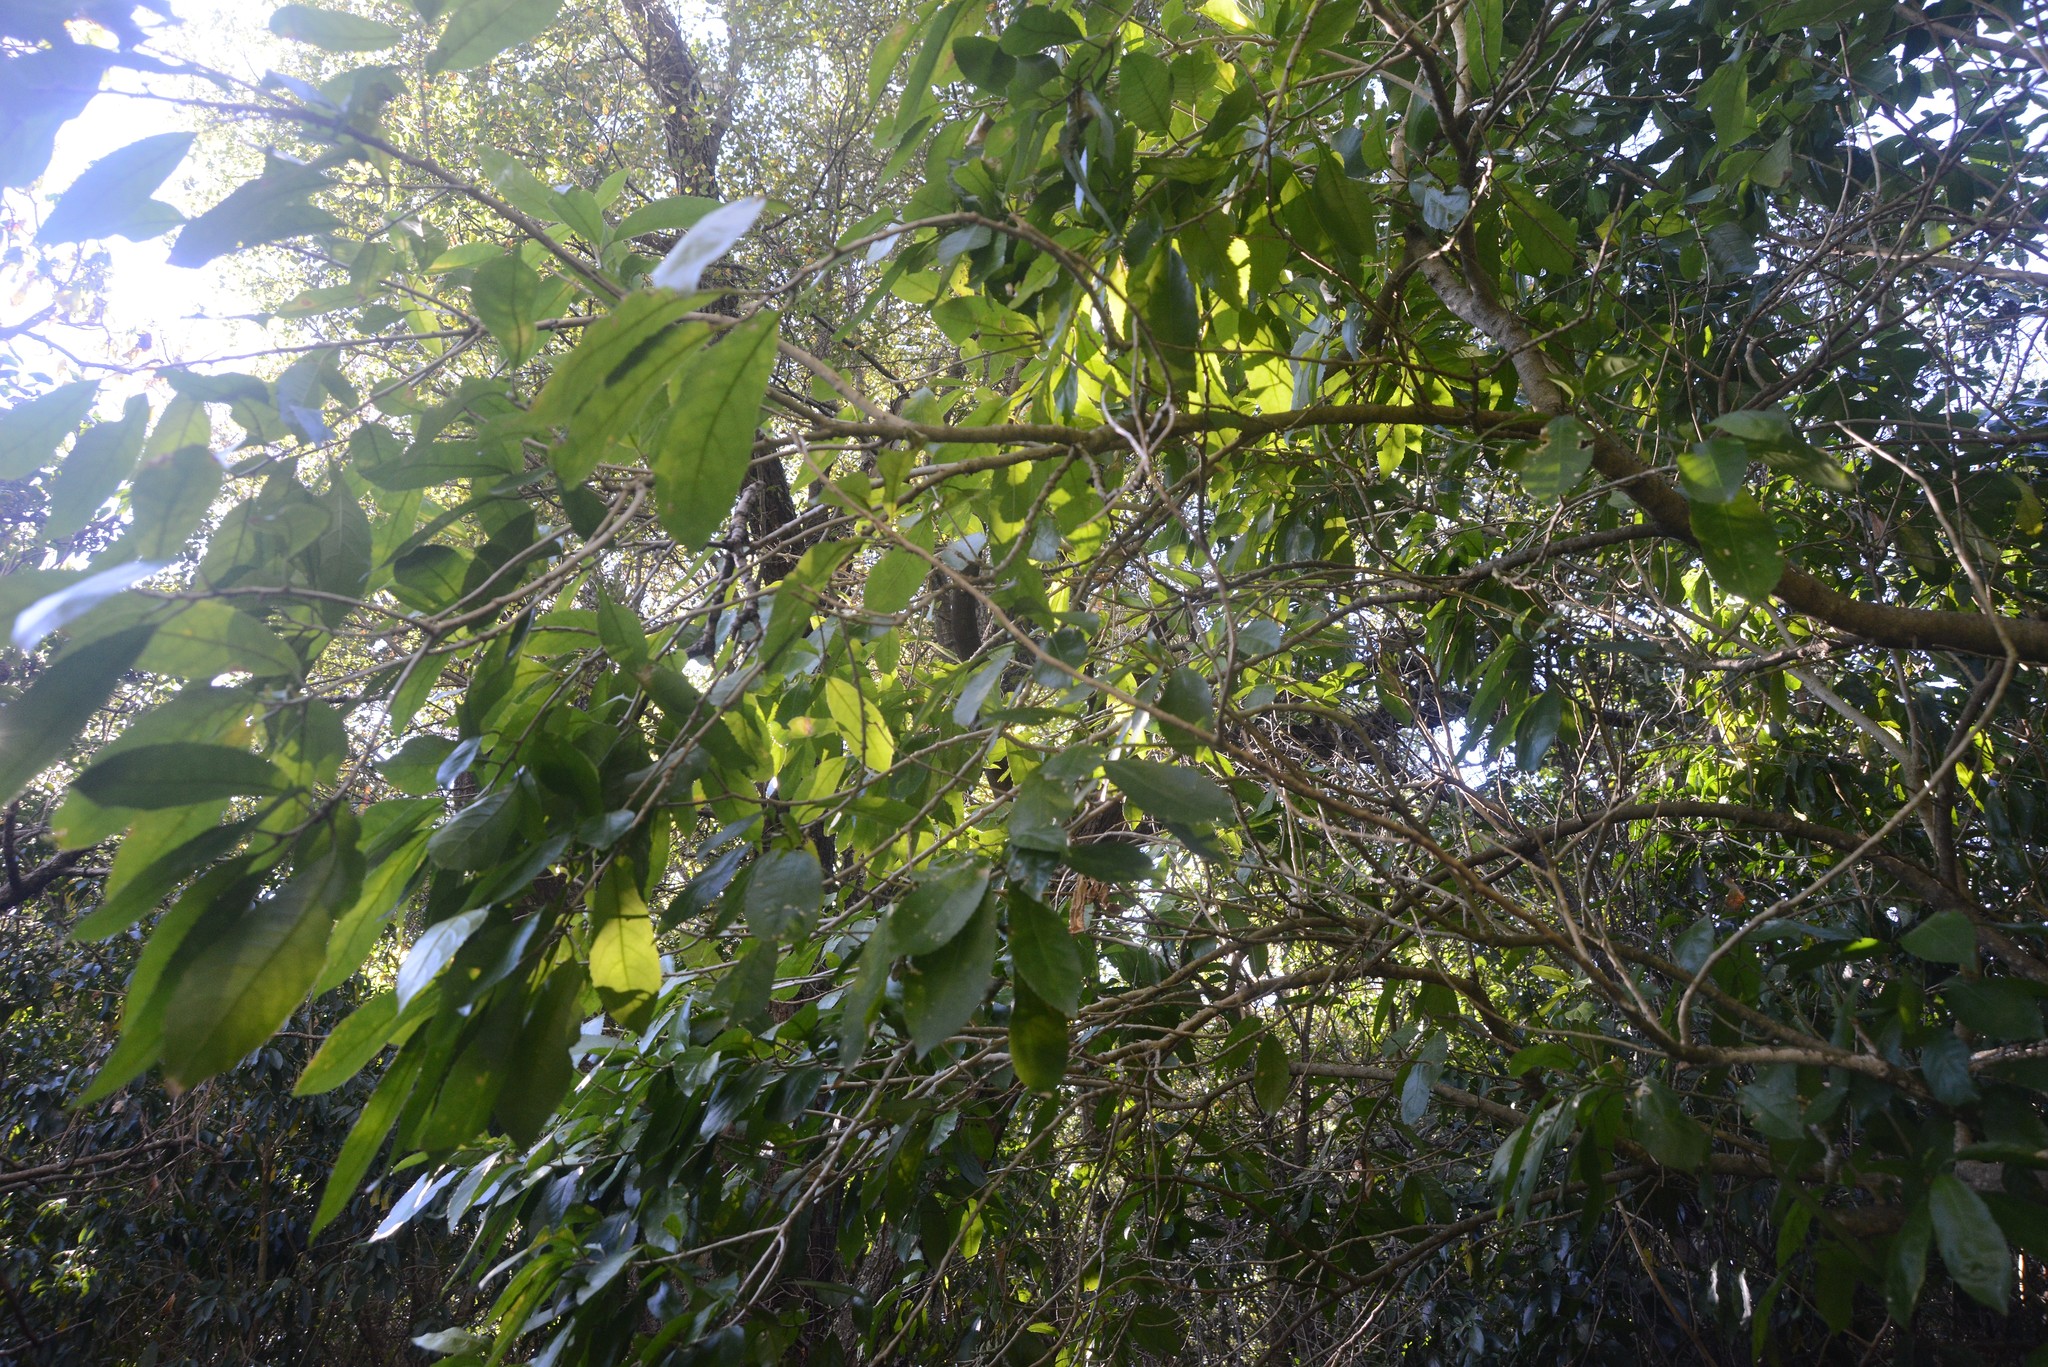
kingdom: Plantae
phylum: Tracheophyta
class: Magnoliopsida
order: Malpighiales
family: Violaceae
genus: Melicytus
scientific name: Melicytus ramiflorus
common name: Mahoe
